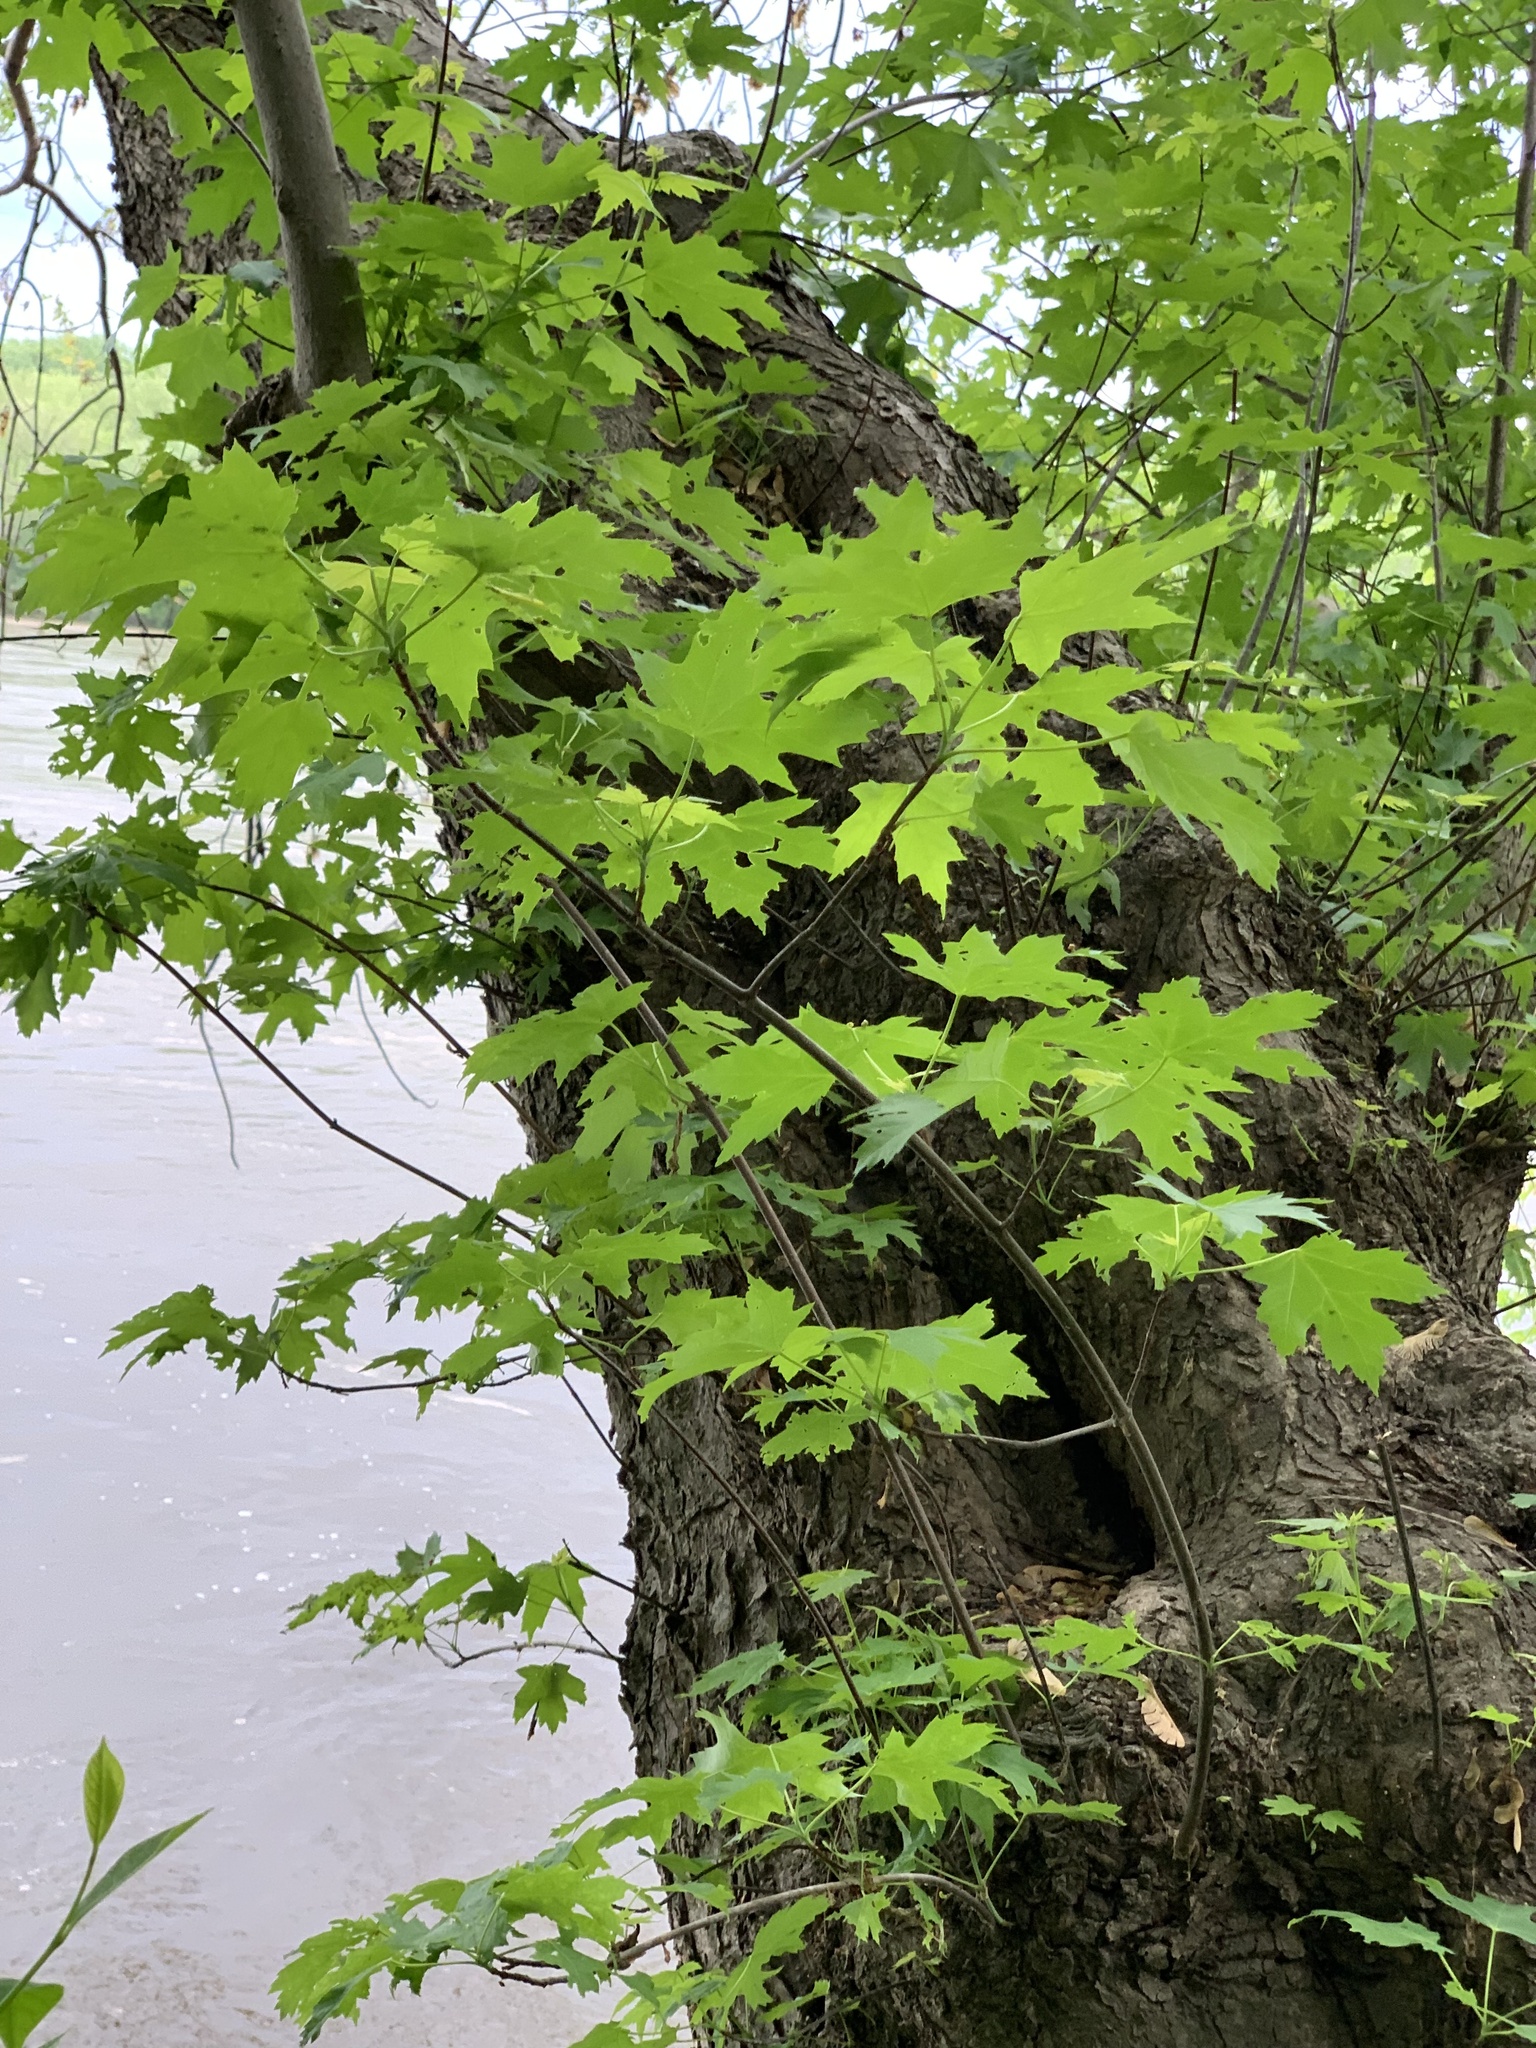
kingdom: Plantae
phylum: Tracheophyta
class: Magnoliopsida
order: Sapindales
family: Sapindaceae
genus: Acer
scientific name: Acer saccharinum
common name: Silver maple
